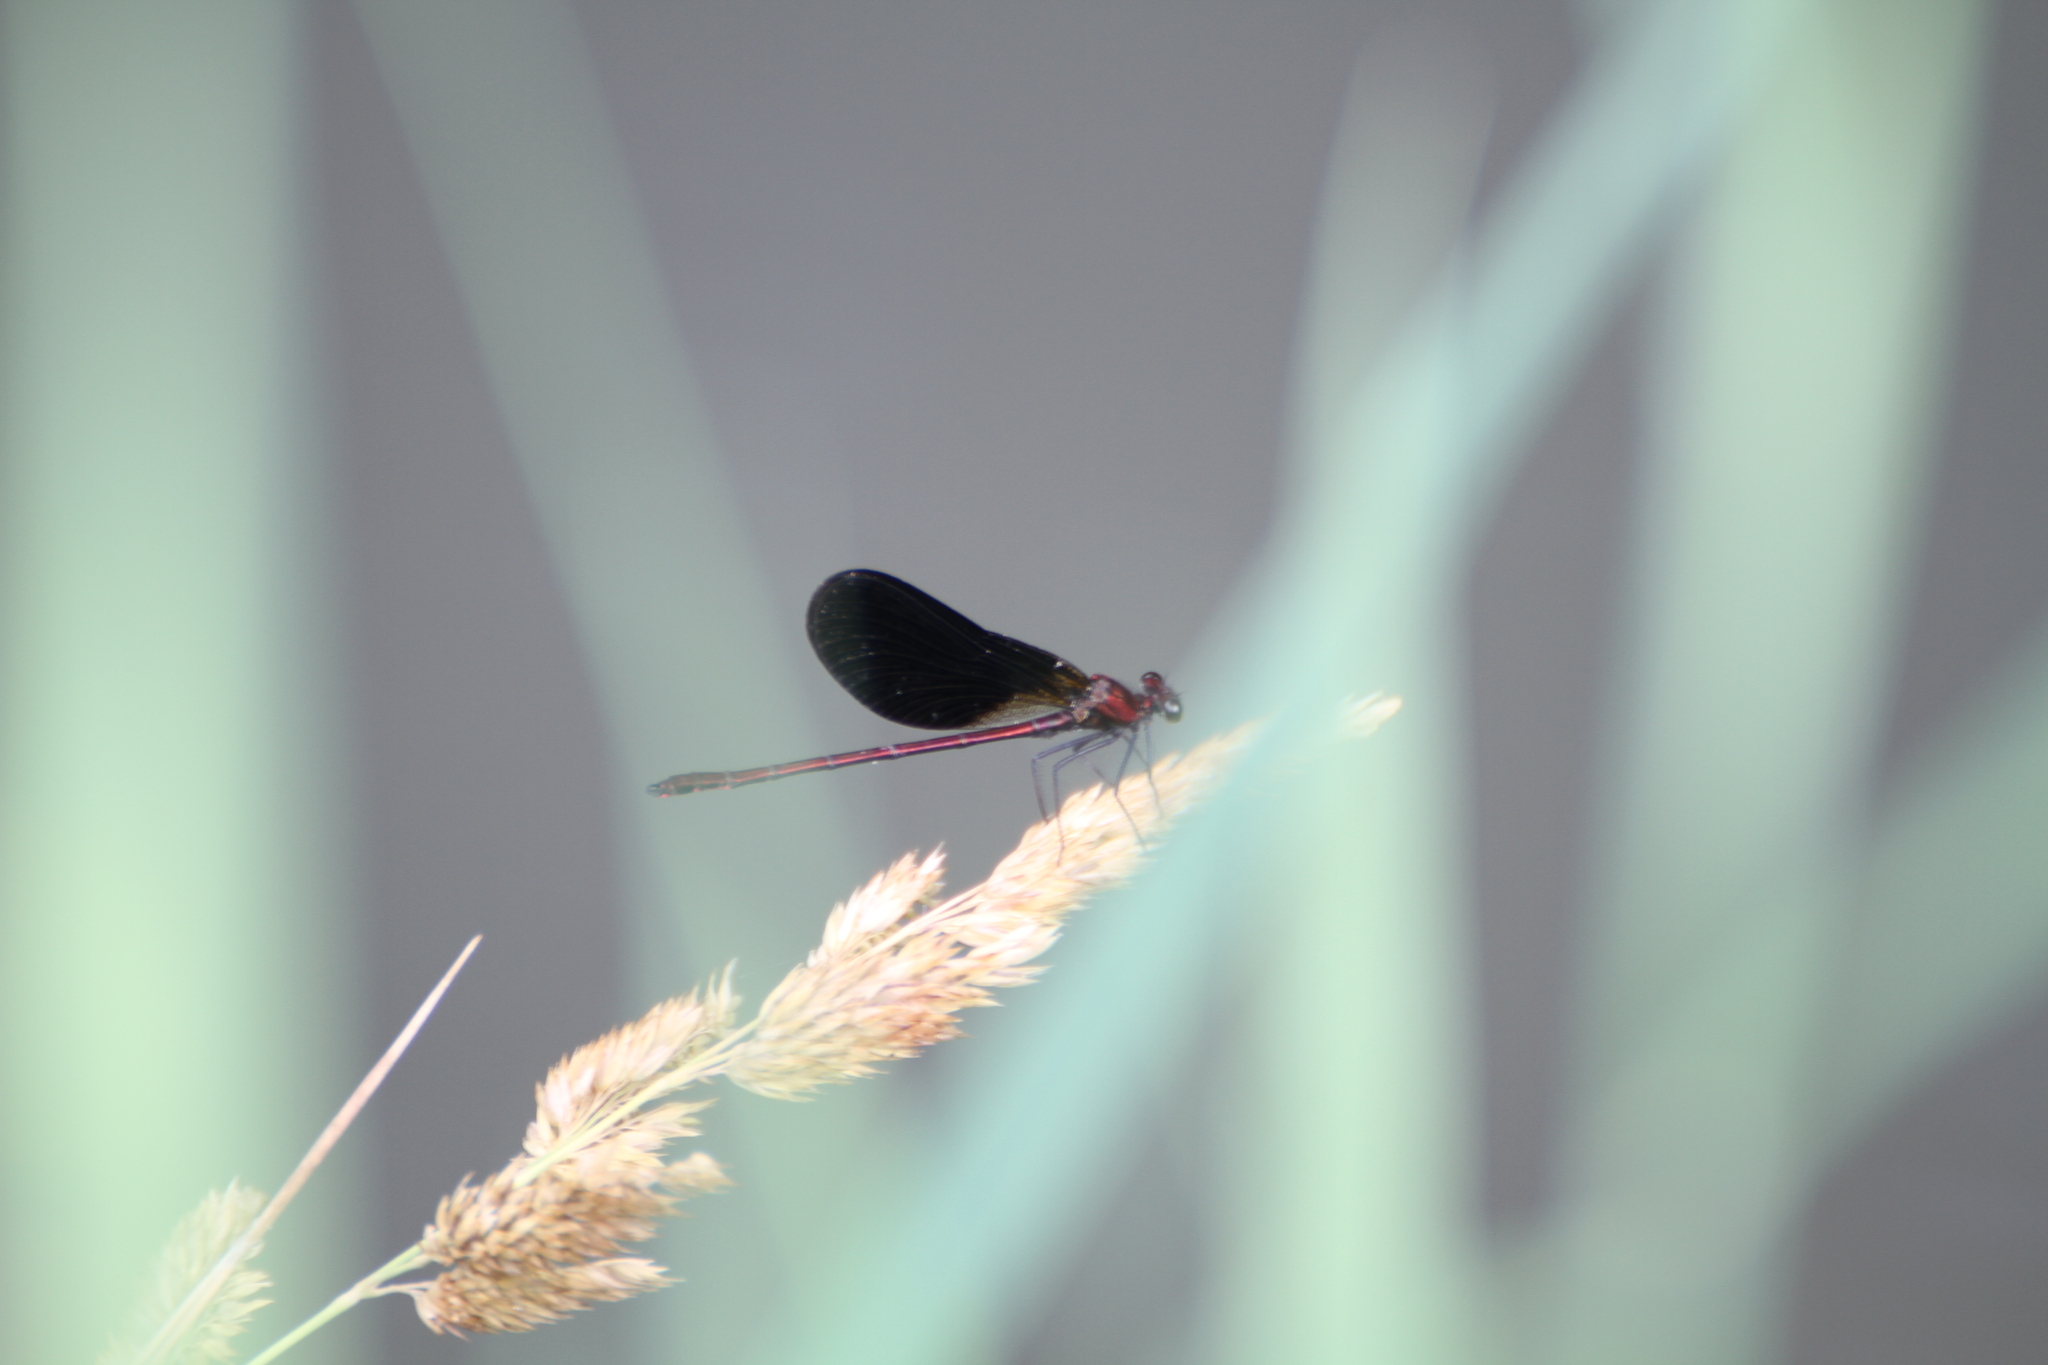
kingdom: Animalia
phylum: Arthropoda
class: Insecta
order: Odonata
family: Calopterygidae
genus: Calopteryx
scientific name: Calopteryx haemorrhoidalis
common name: Copper demoiselle
